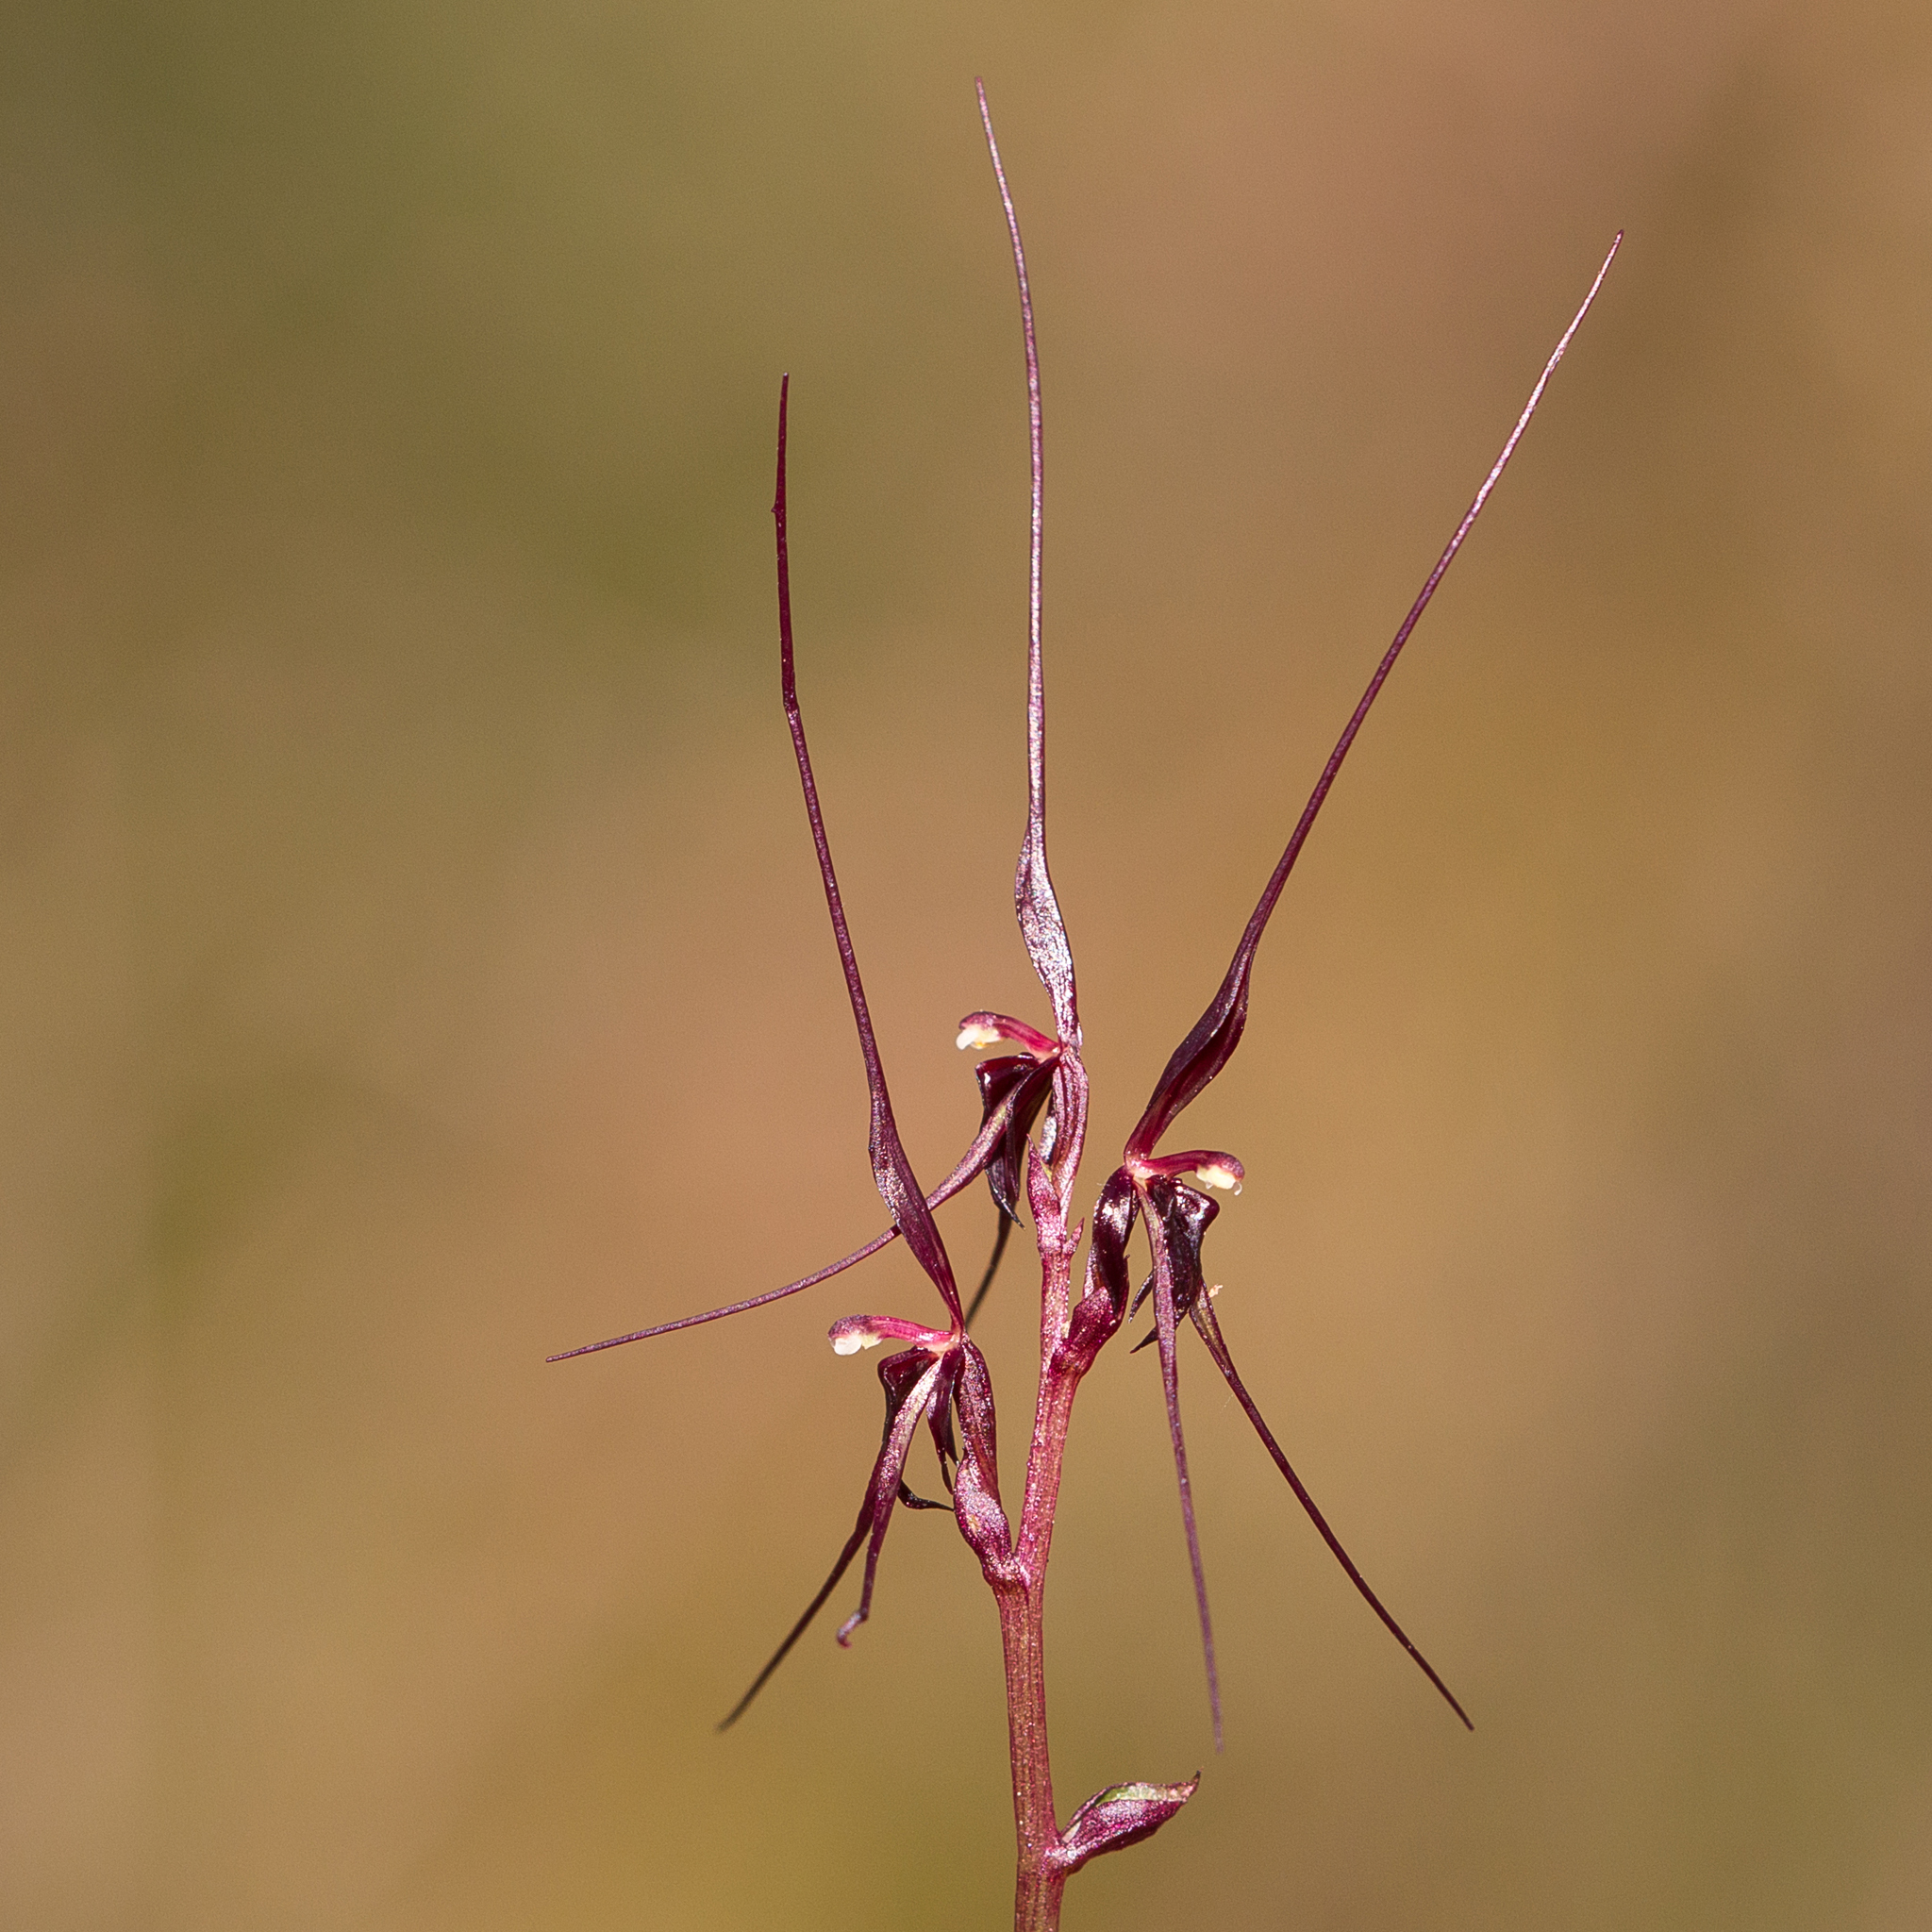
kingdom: Plantae
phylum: Tracheophyta
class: Liliopsida
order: Asparagales
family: Orchidaceae
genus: Acianthus
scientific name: Acianthus caudatus
